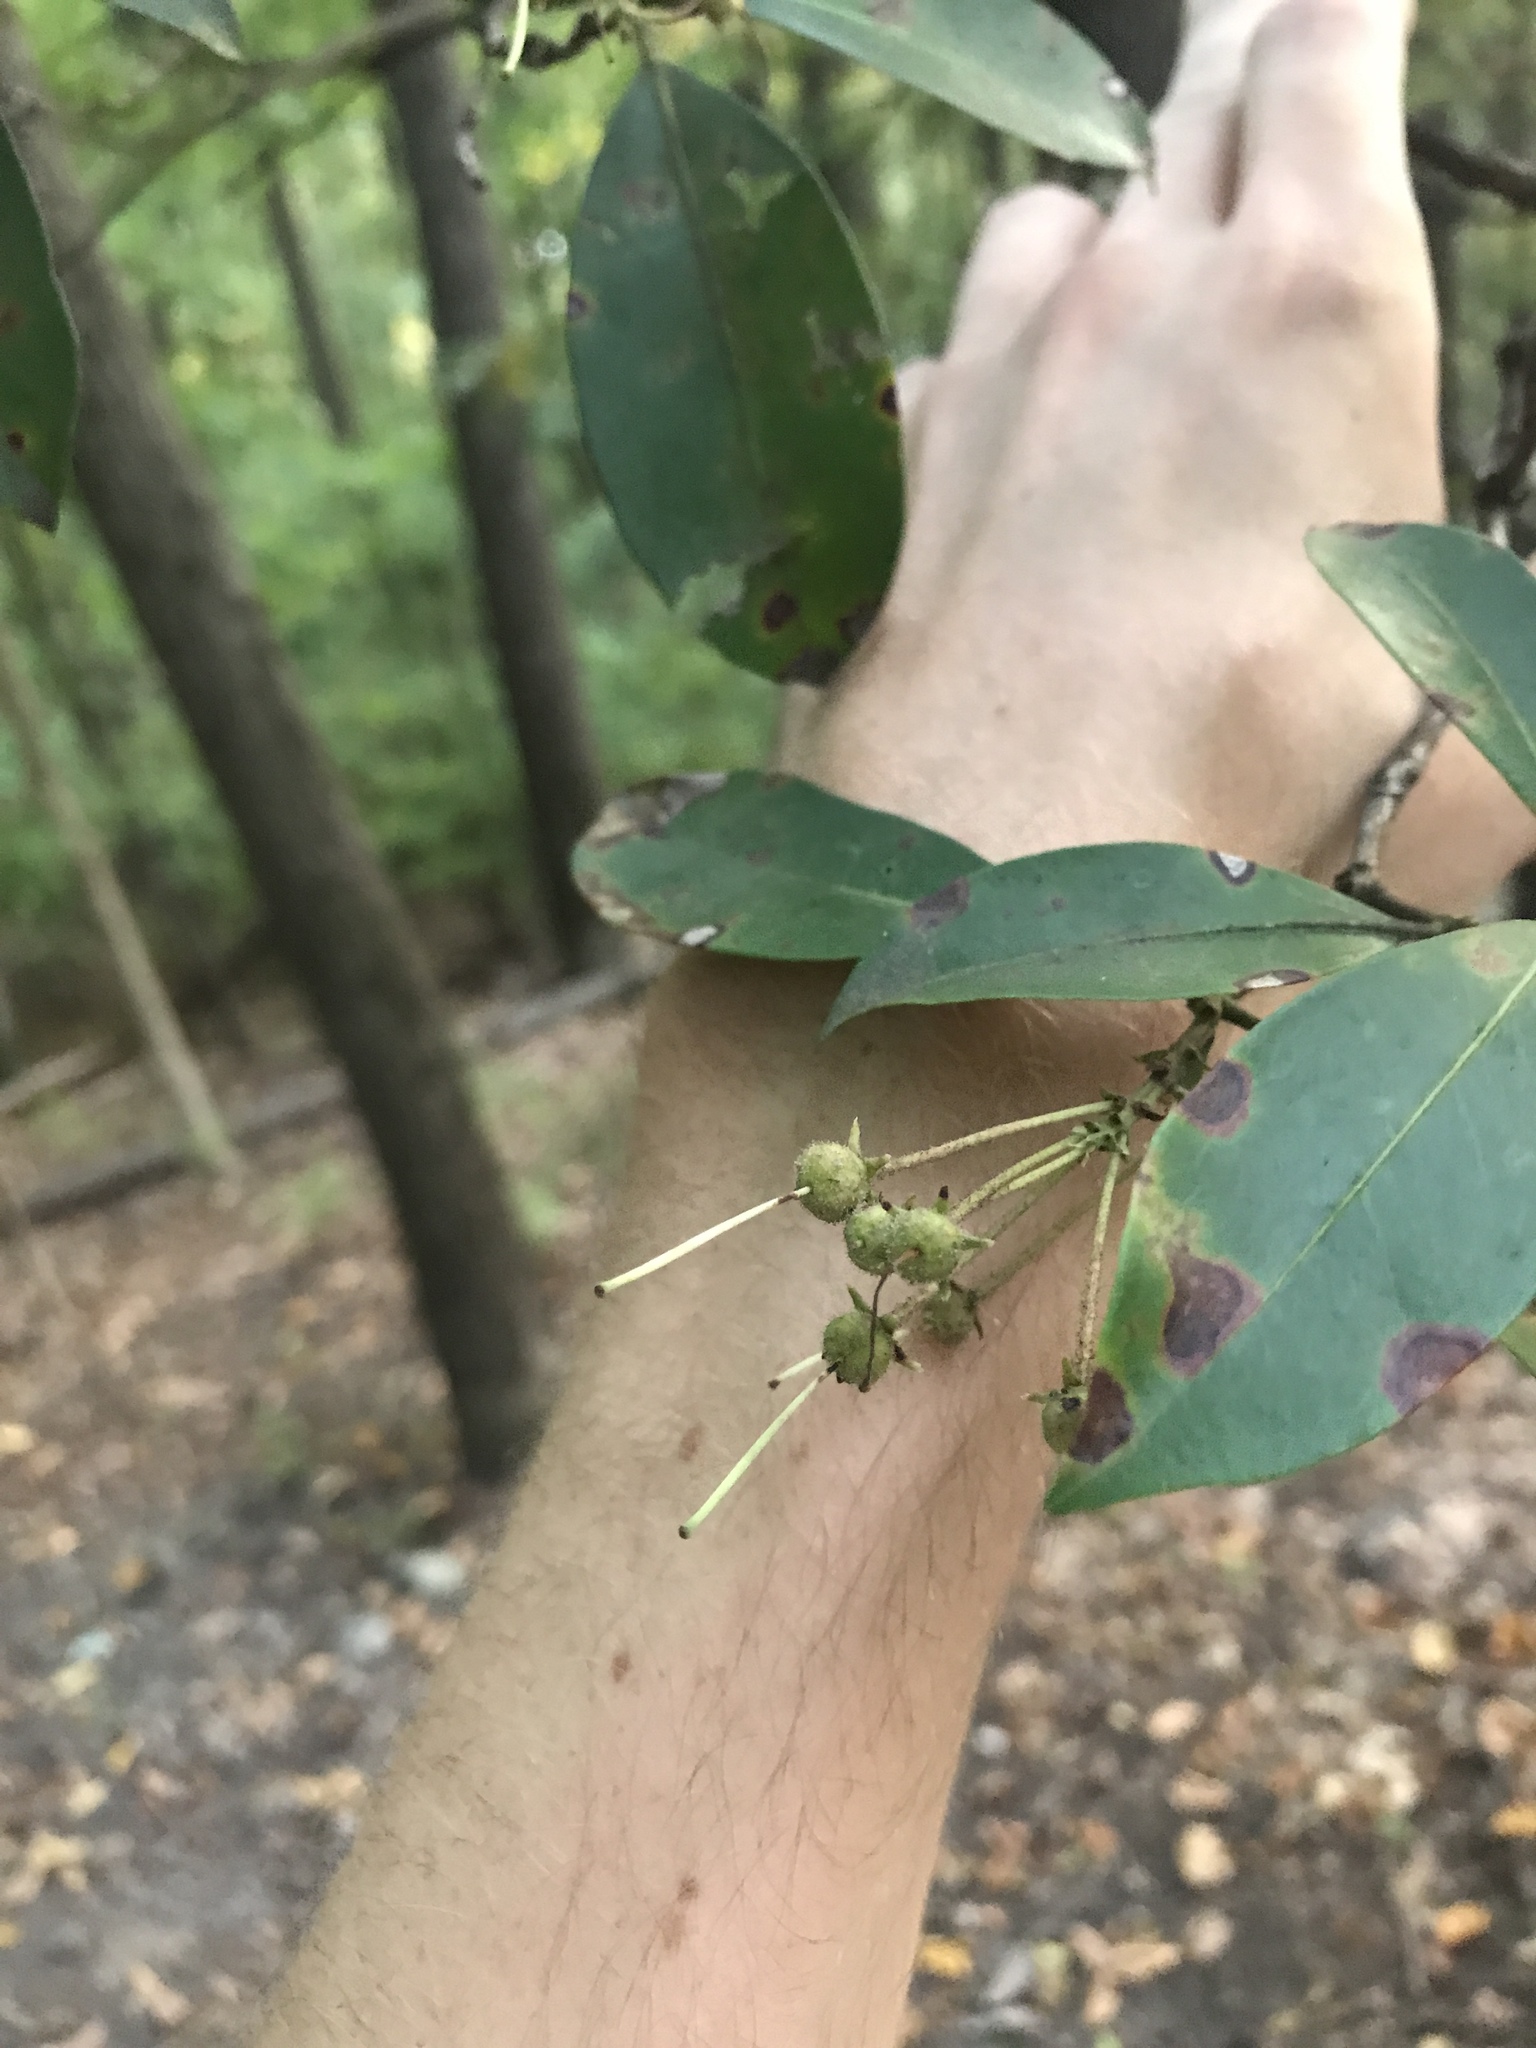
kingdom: Plantae
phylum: Tracheophyta
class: Magnoliopsida
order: Ericales
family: Ericaceae
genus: Kalmia
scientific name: Kalmia latifolia
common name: Mountain-laurel
